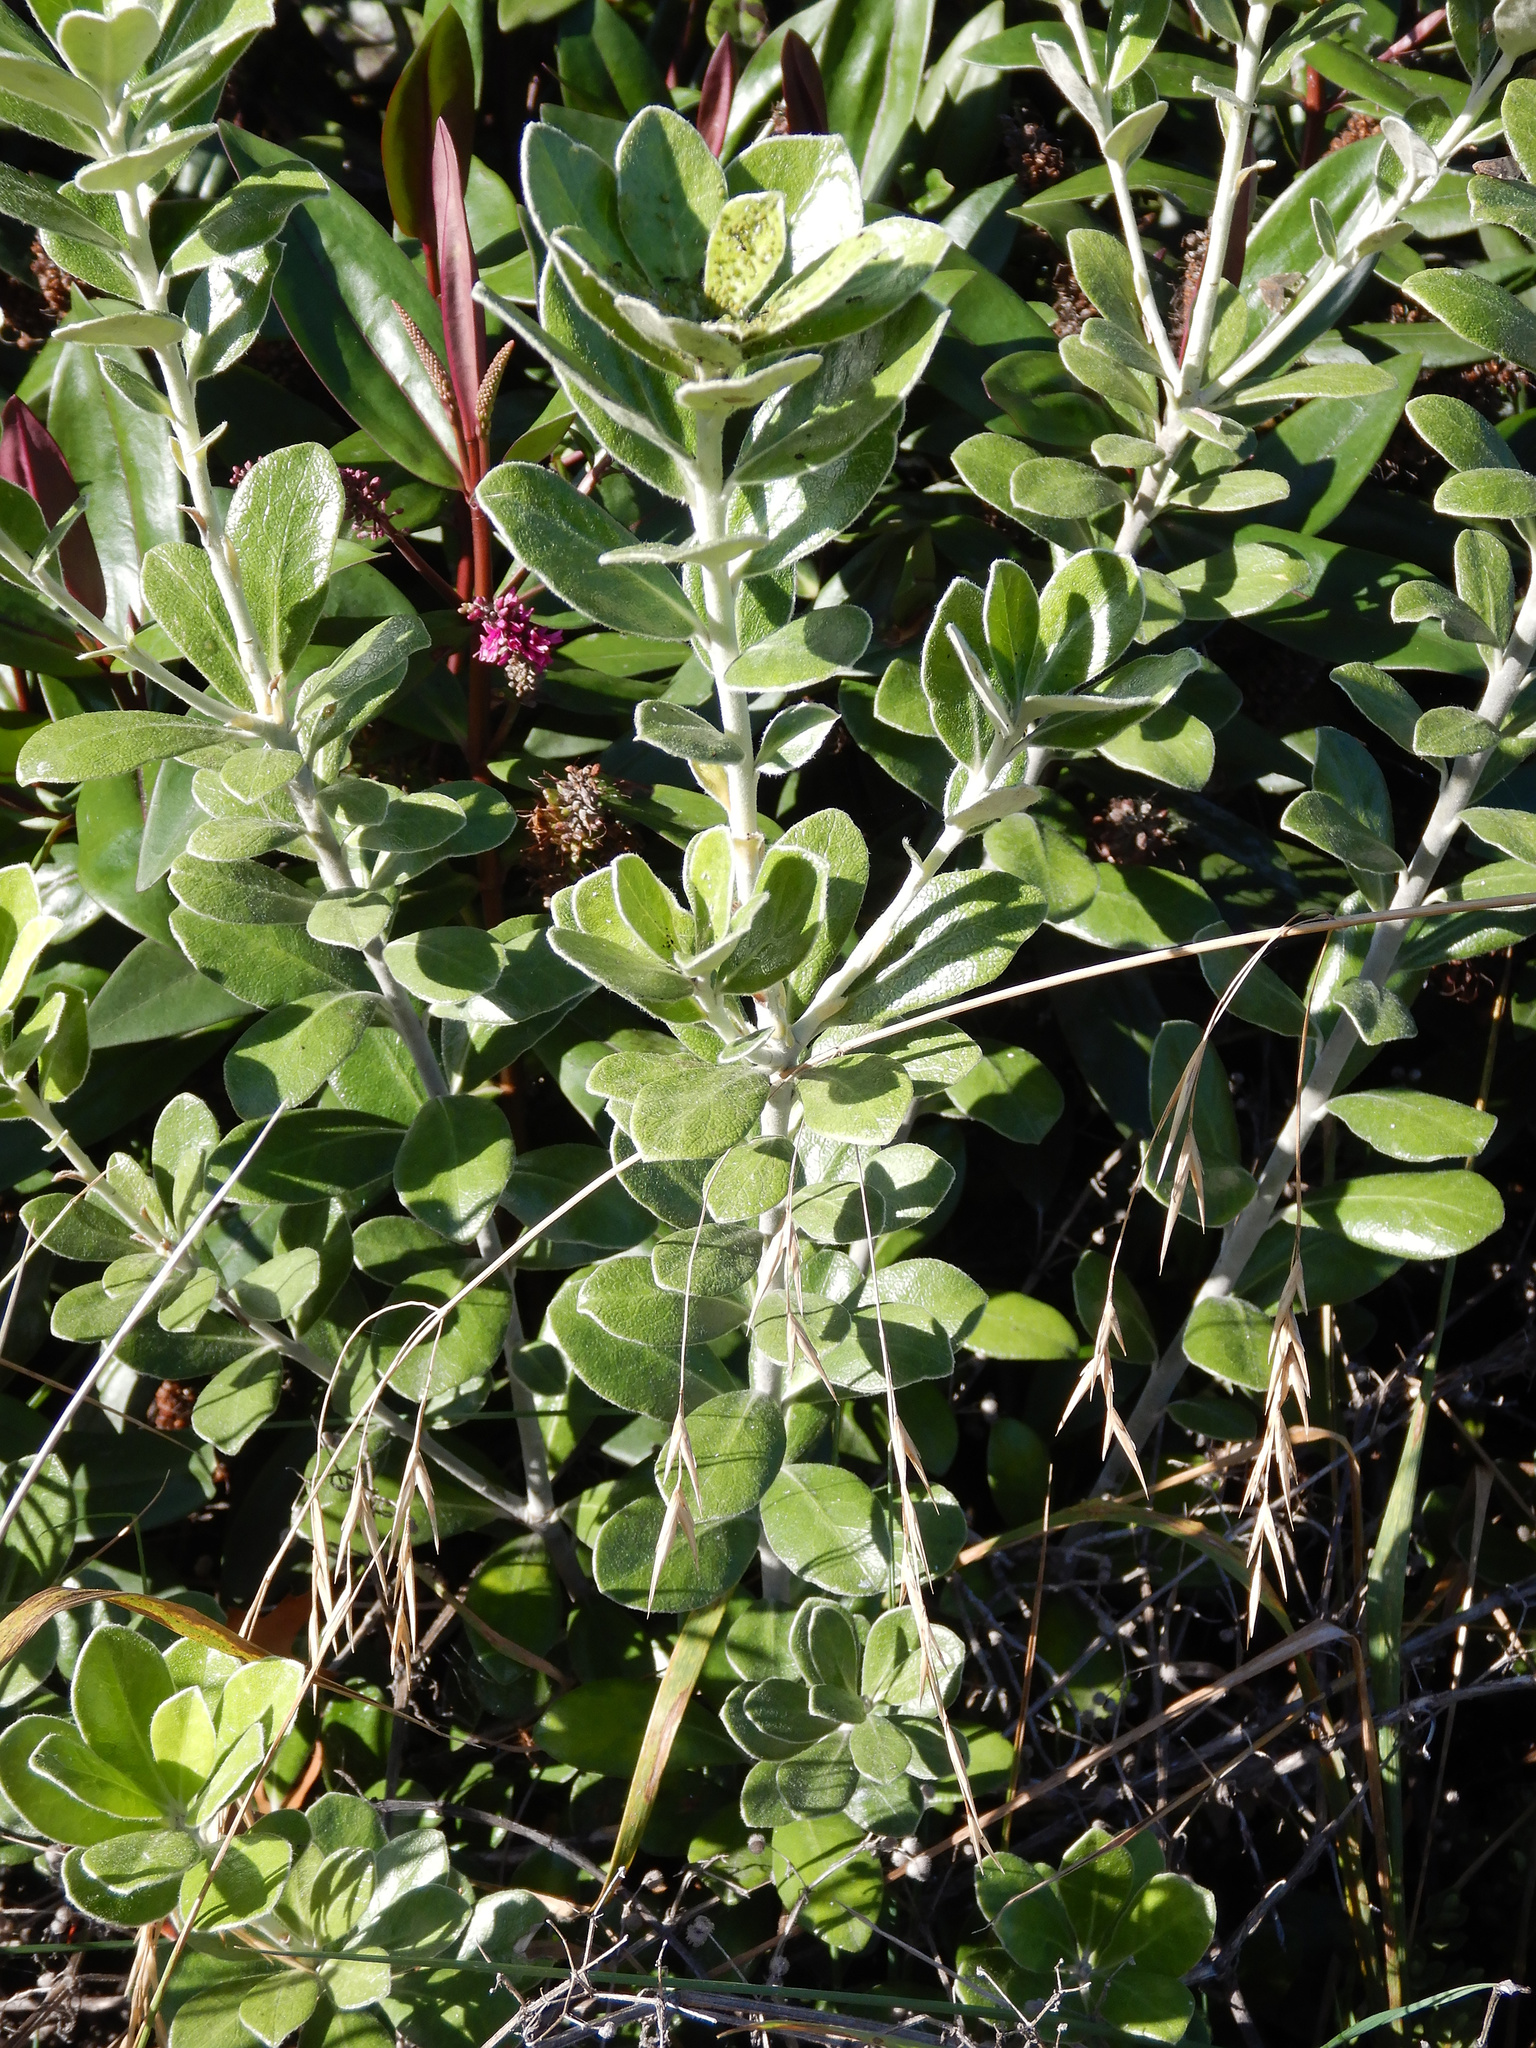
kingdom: Plantae
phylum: Tracheophyta
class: Magnoliopsida
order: Apiales
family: Pittosporaceae
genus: Pittosporum
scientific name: Pittosporum crassifolium
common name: Karo
